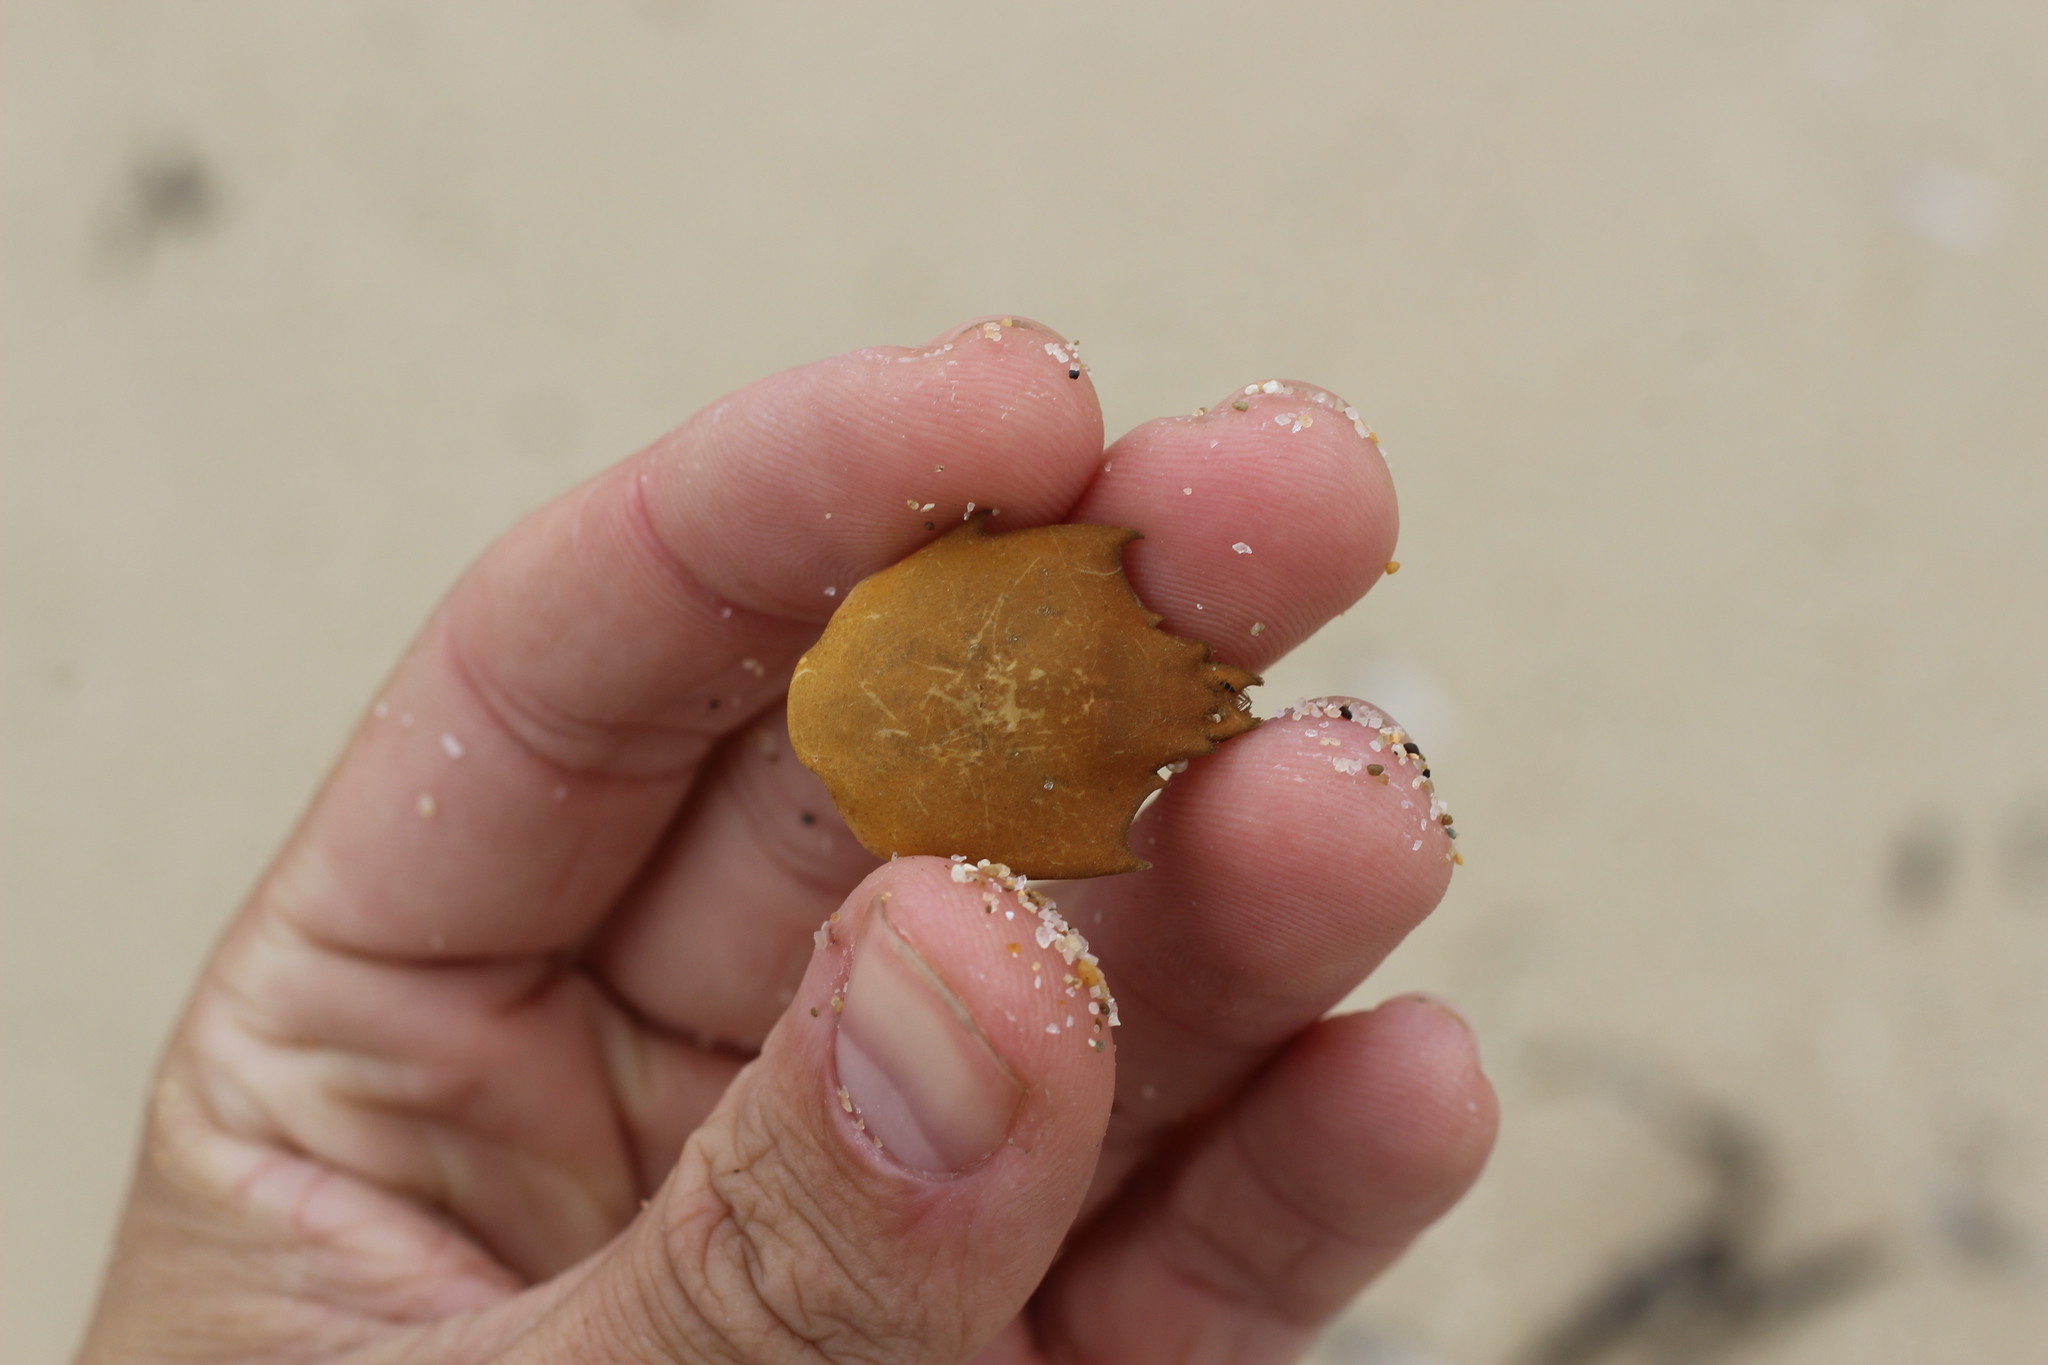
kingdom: Animalia
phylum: Arthropoda
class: Malacostraca
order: Decapoda
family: Epialtidae
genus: Pugettia
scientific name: Pugettia producta
